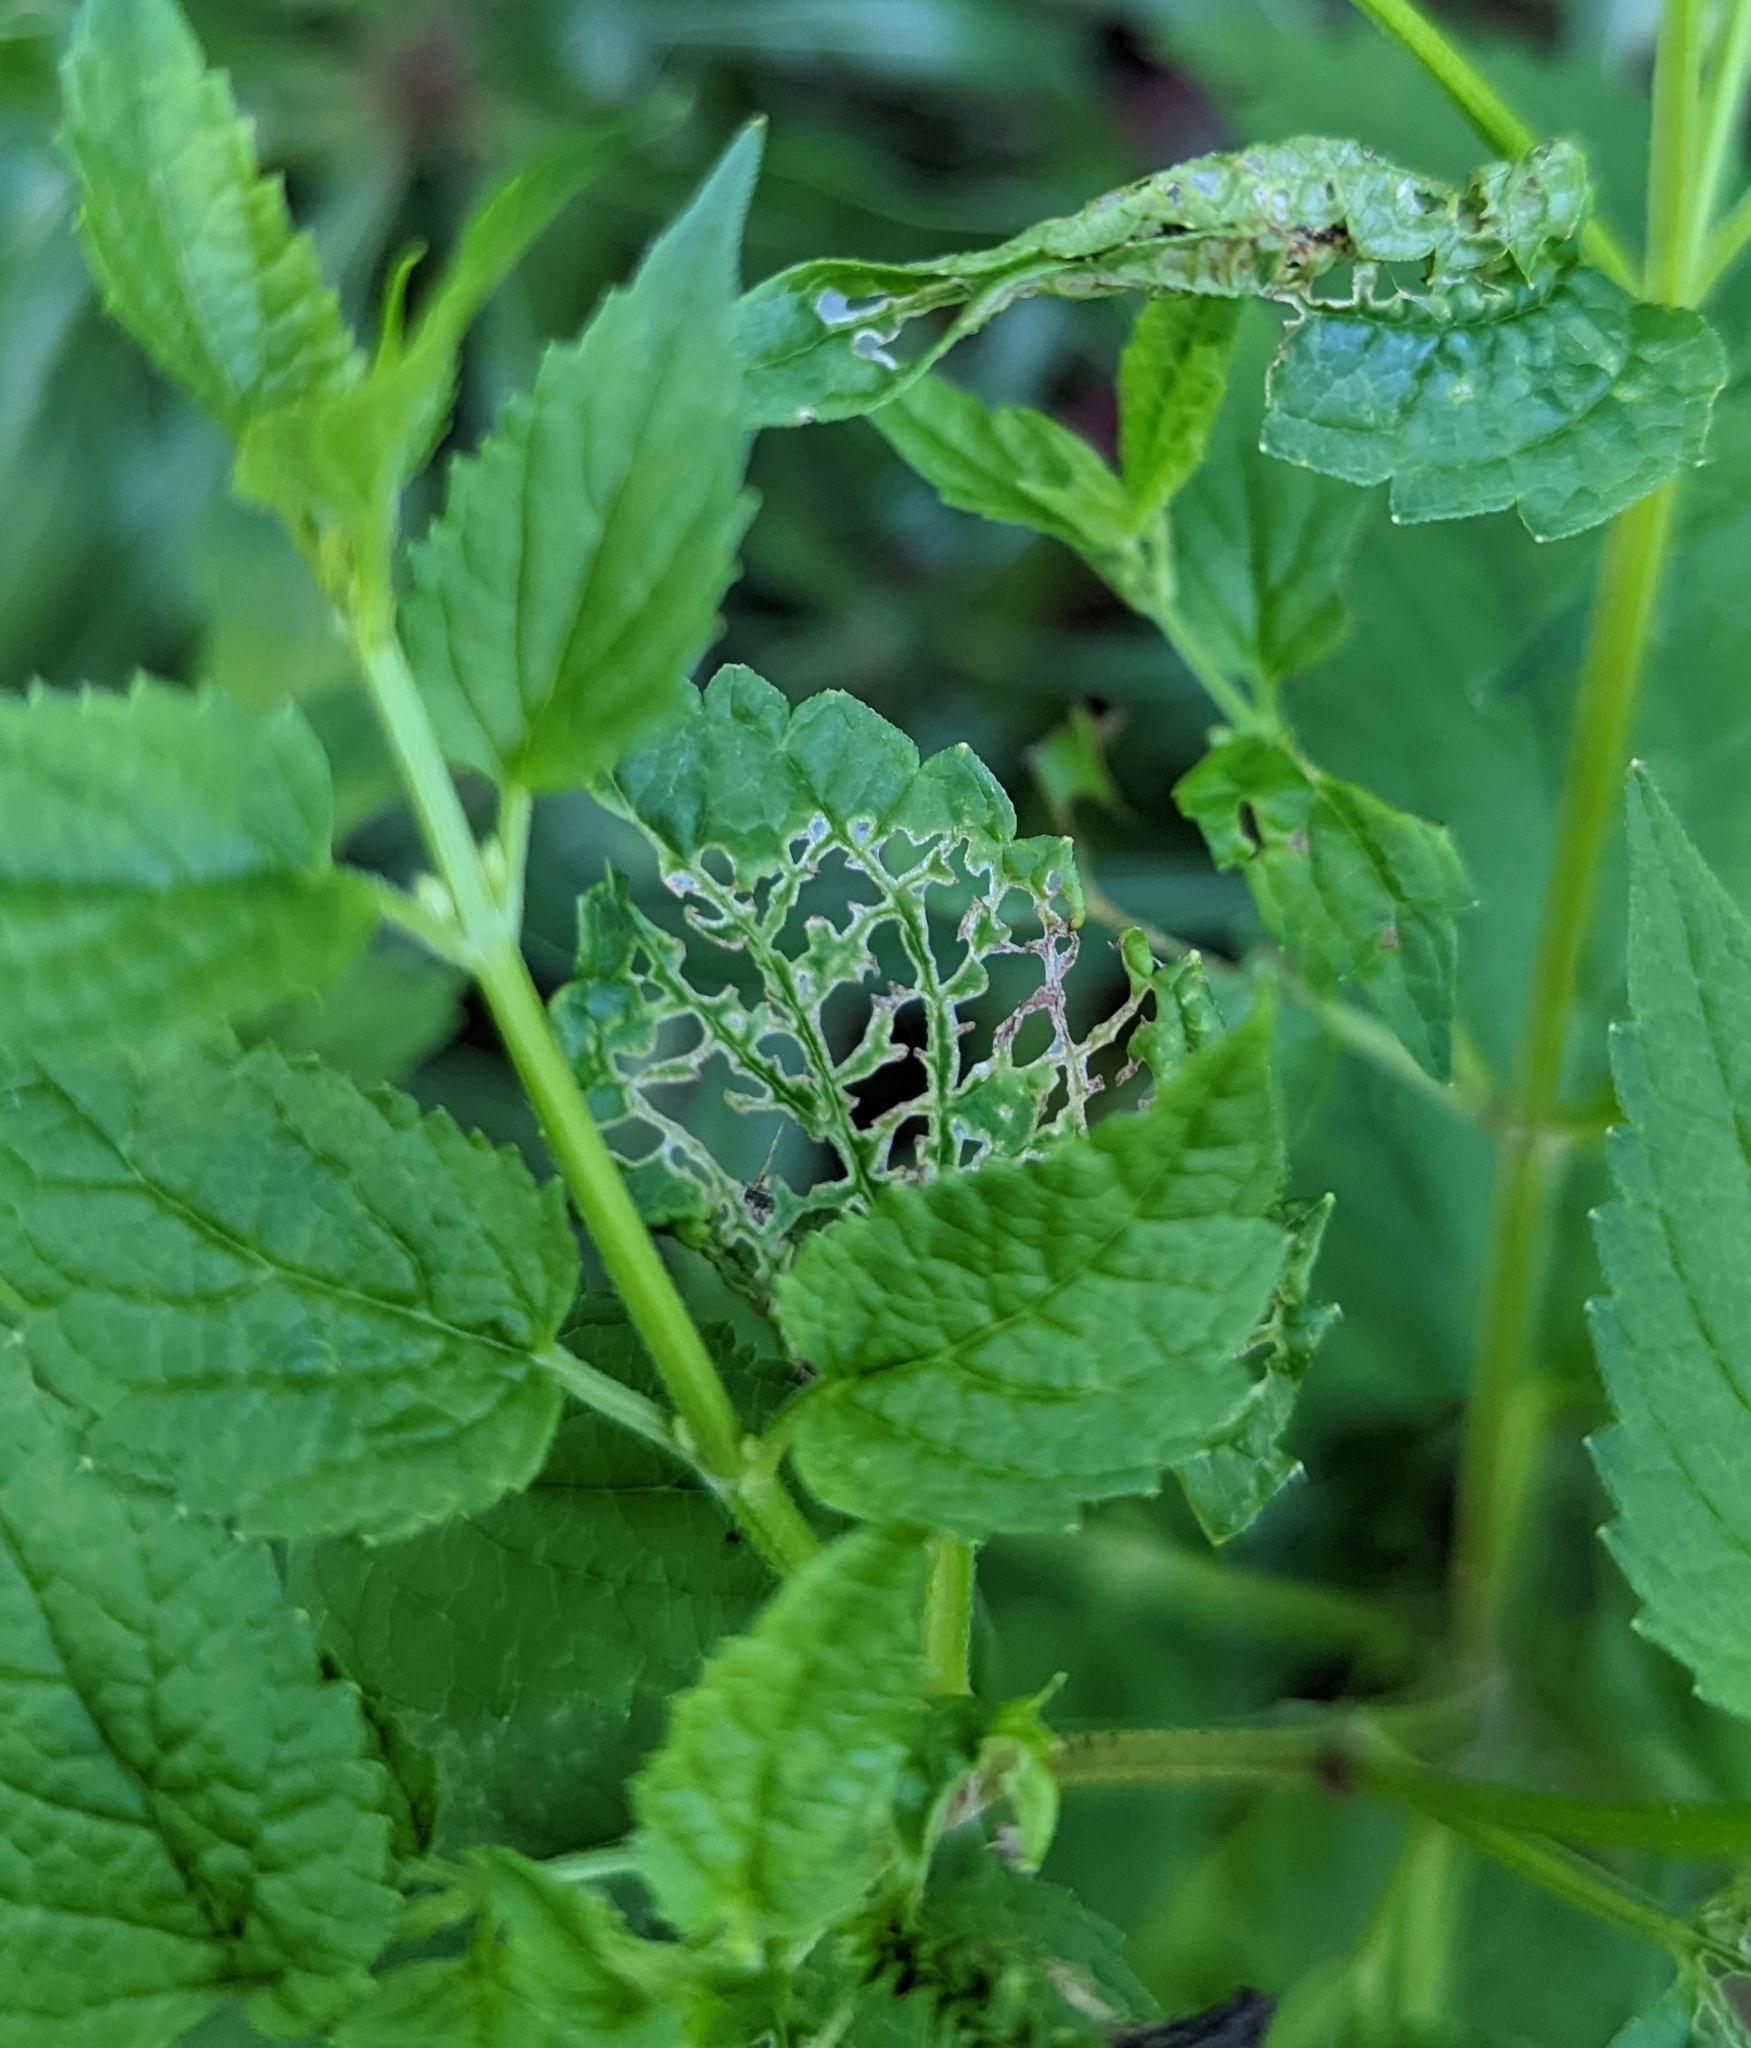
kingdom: Animalia
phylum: Arthropoda
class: Insecta
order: Lepidoptera
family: Choreutidae
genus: Prochoreutis
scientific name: Prochoreutis inflatella
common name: Skullcap skeletonizer moth
